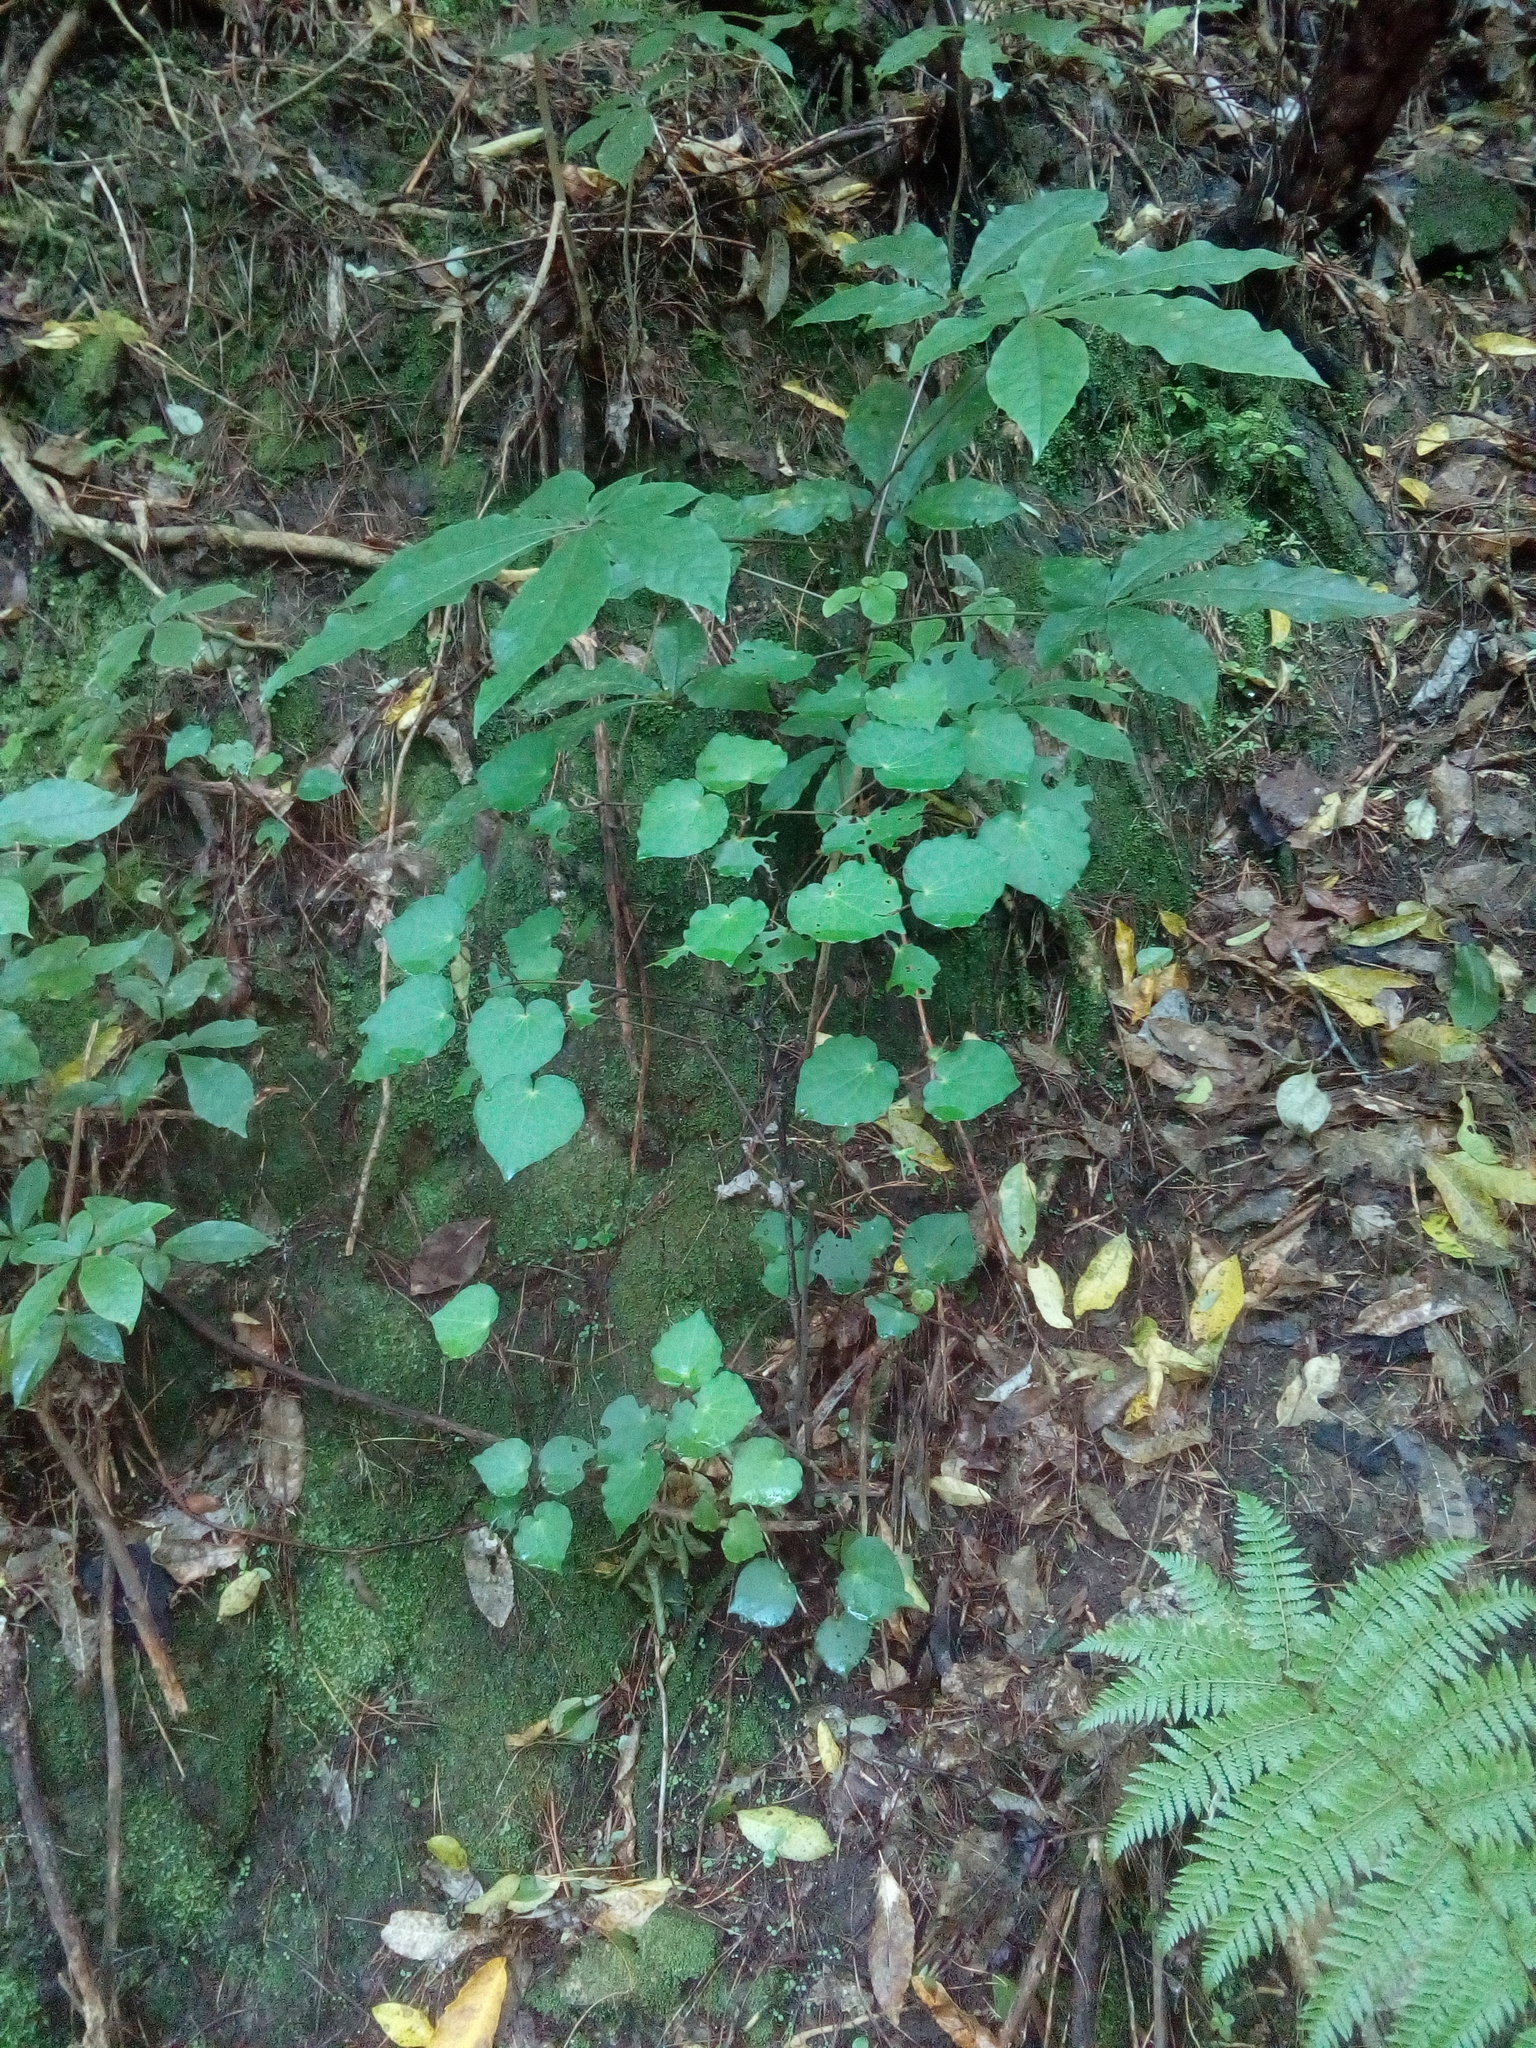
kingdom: Plantae
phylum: Tracheophyta
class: Magnoliopsida
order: Piperales
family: Piperaceae
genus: Macropiper
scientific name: Macropiper excelsum
